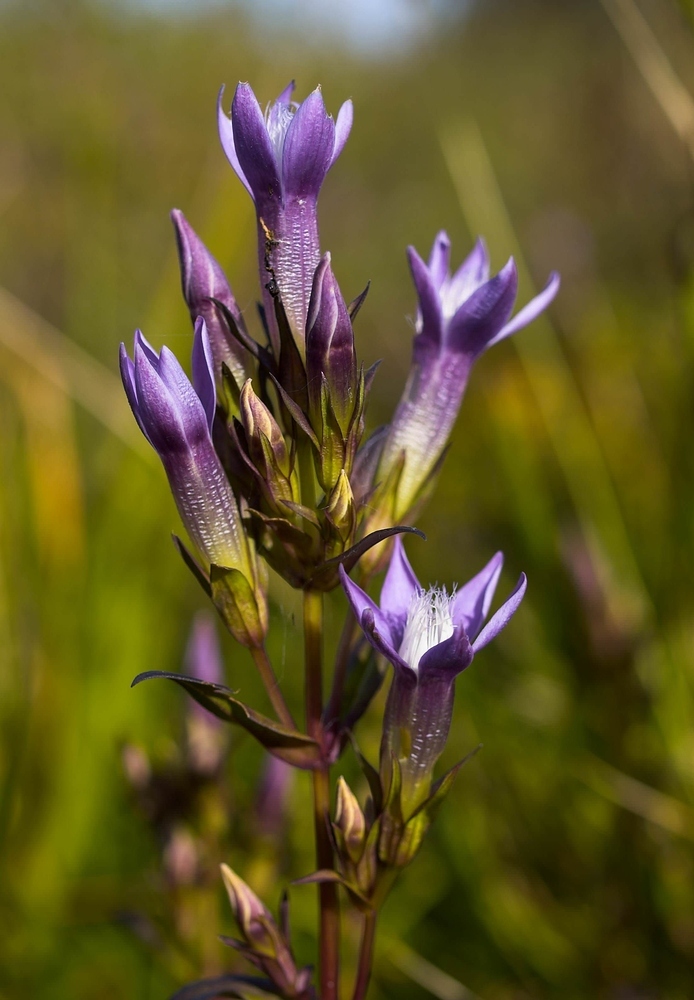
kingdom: Plantae
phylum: Tracheophyta
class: Magnoliopsida
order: Gentianales
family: Gentianaceae
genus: Gentianella
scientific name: Gentianella germanica
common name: Chiltern-gentian
